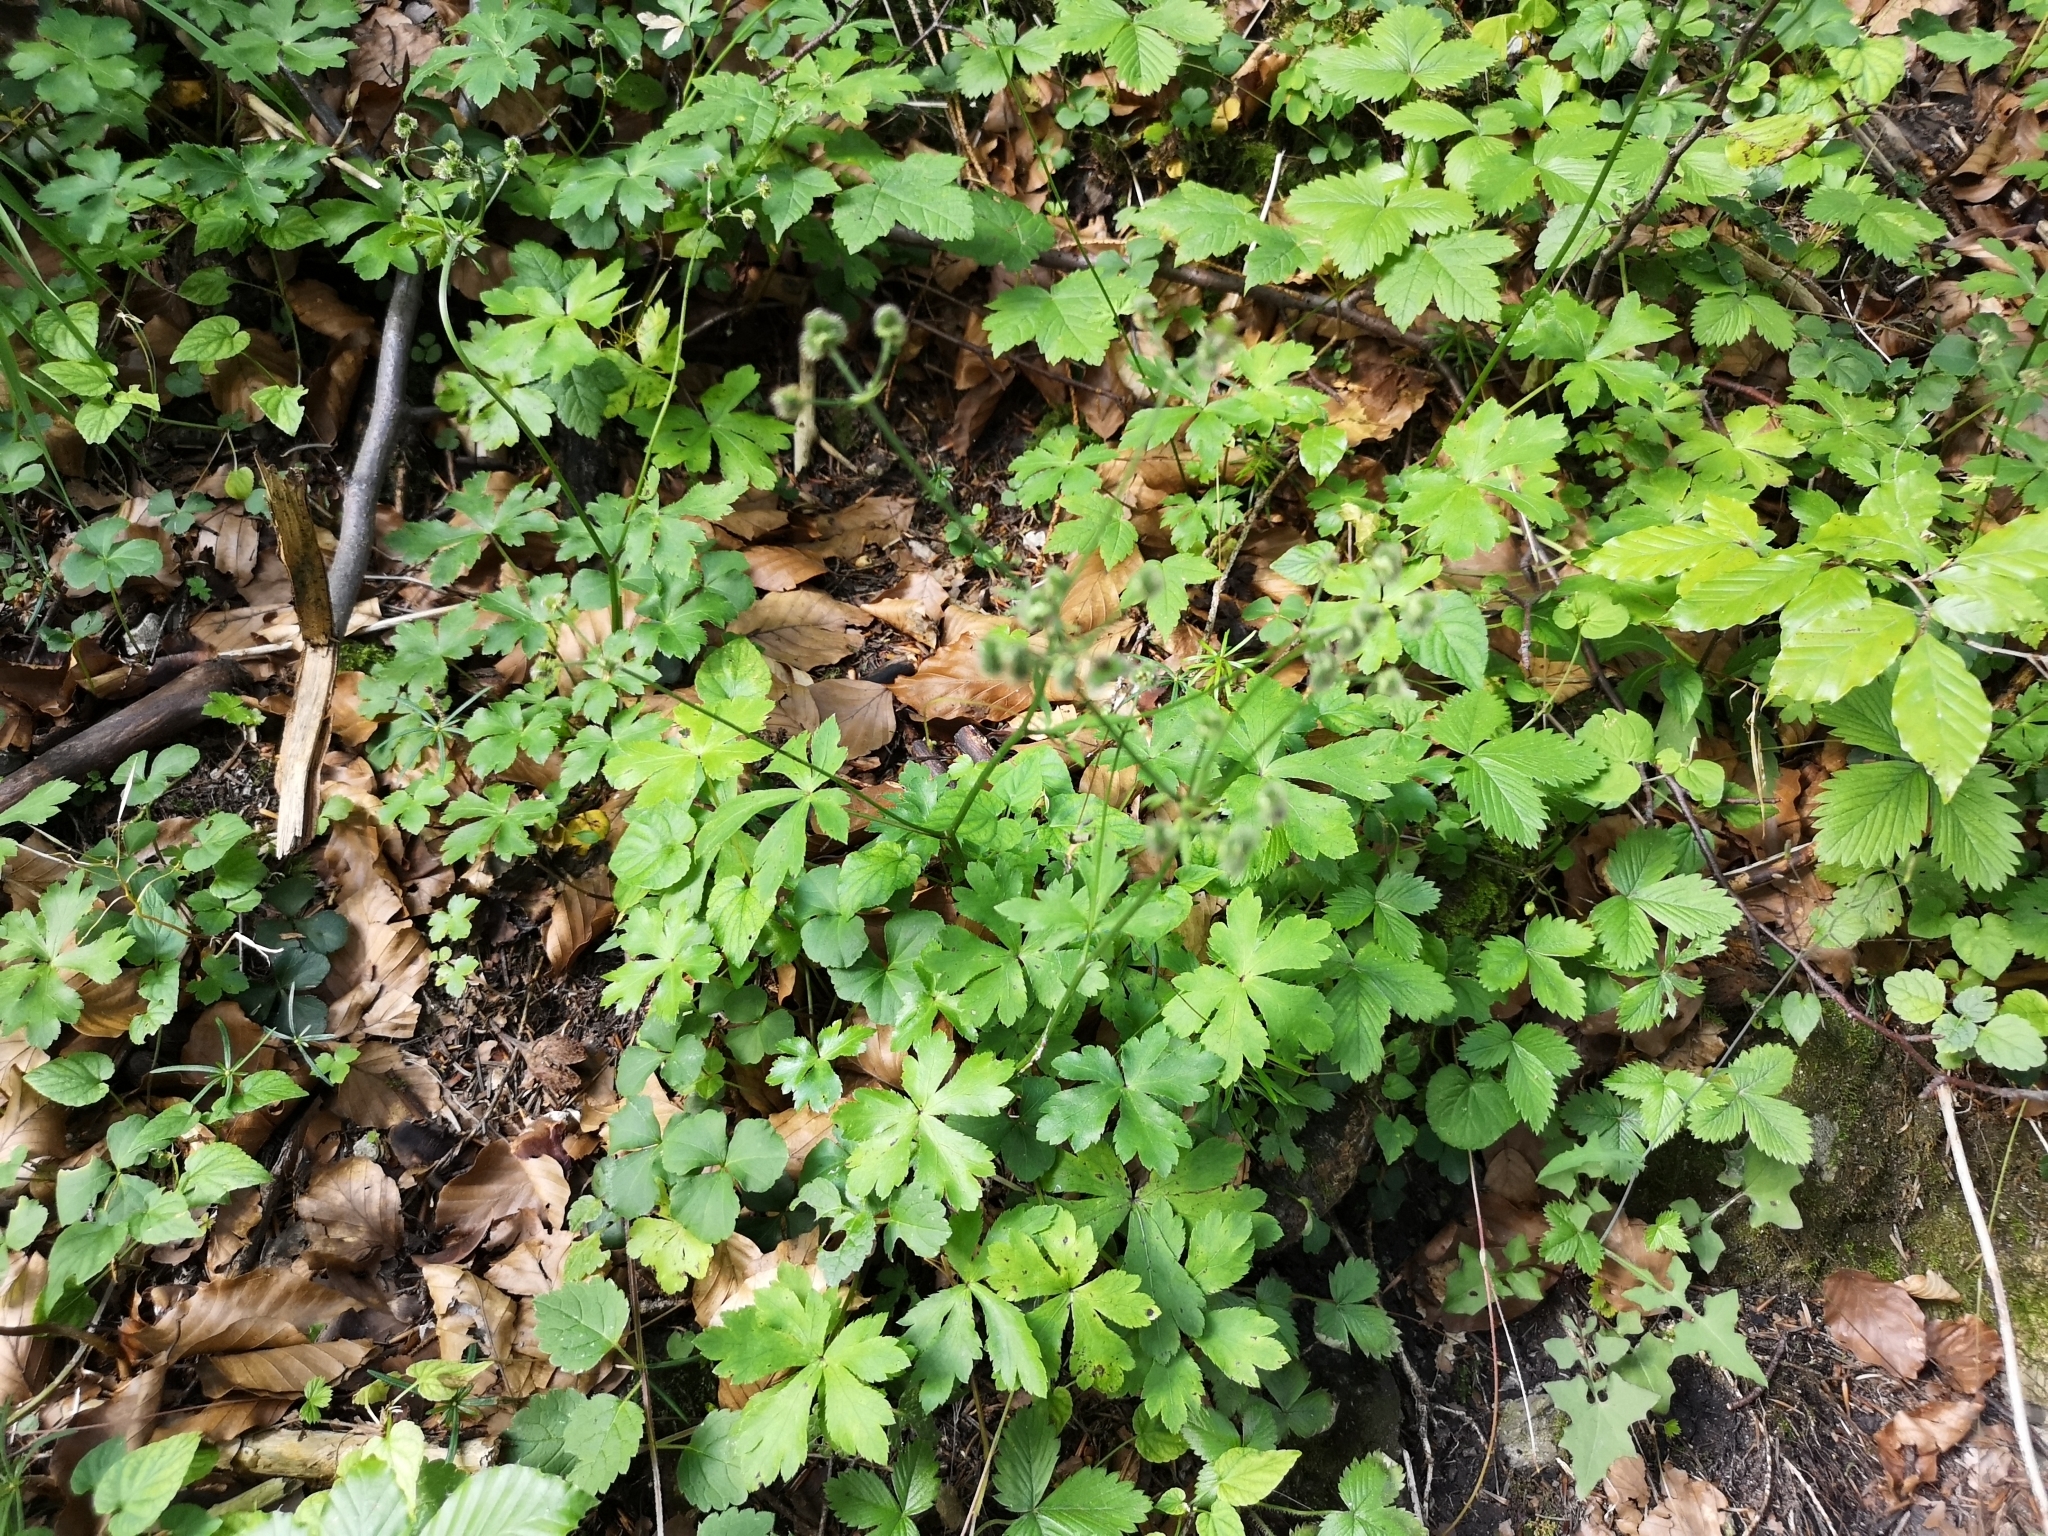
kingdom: Plantae
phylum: Tracheophyta
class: Magnoliopsida
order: Apiales
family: Apiaceae
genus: Sanicula
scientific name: Sanicula europaea
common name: Sanicle
